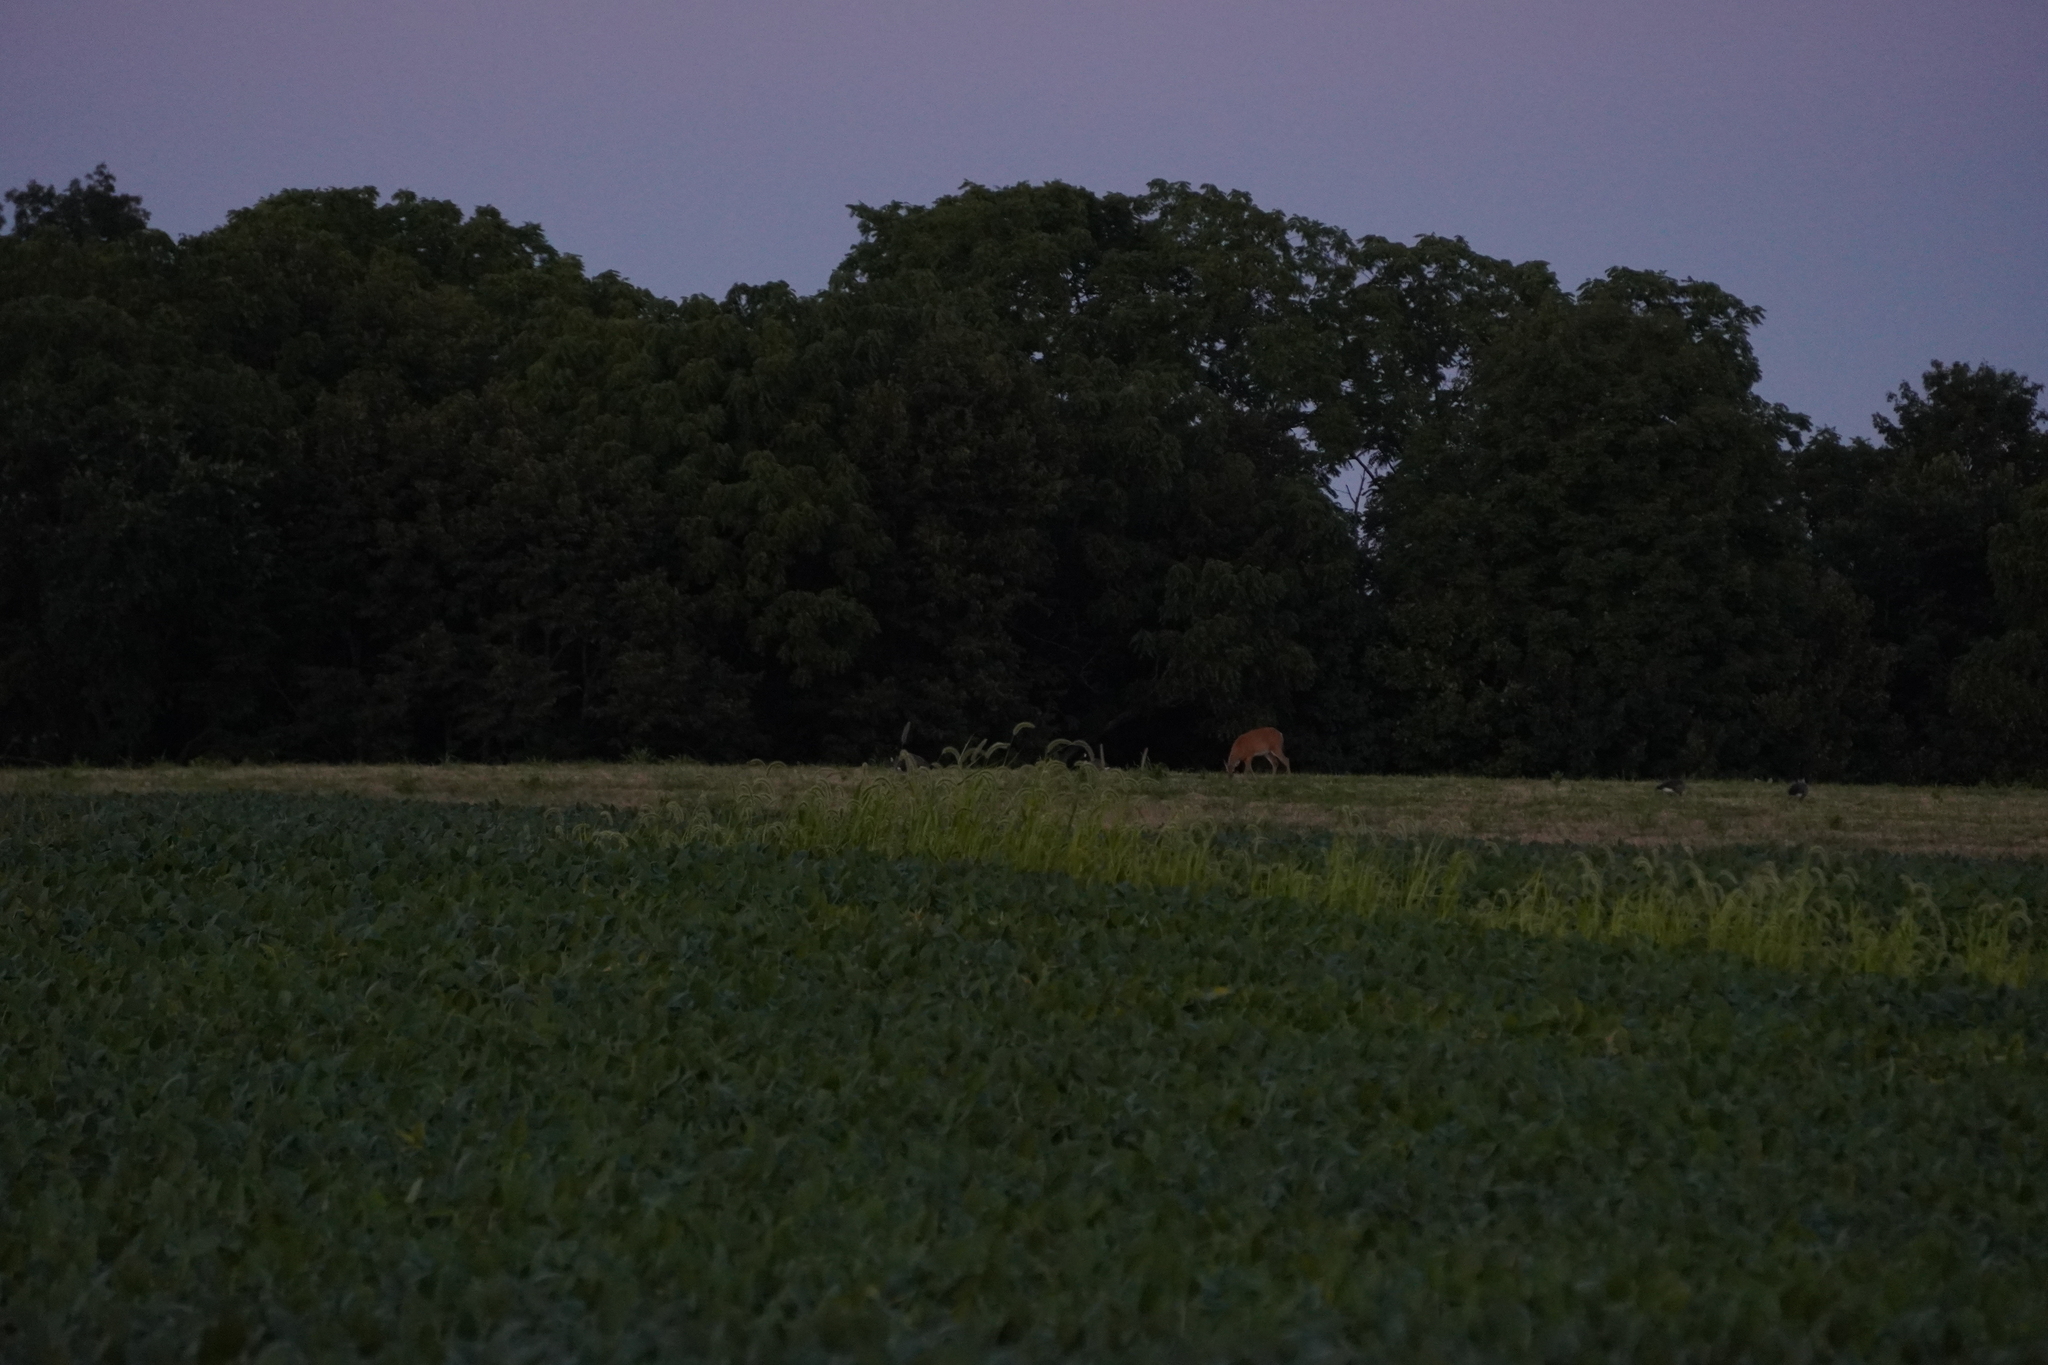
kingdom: Animalia
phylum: Chordata
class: Mammalia
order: Artiodactyla
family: Cervidae
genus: Odocoileus
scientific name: Odocoileus virginianus
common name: White-tailed deer
